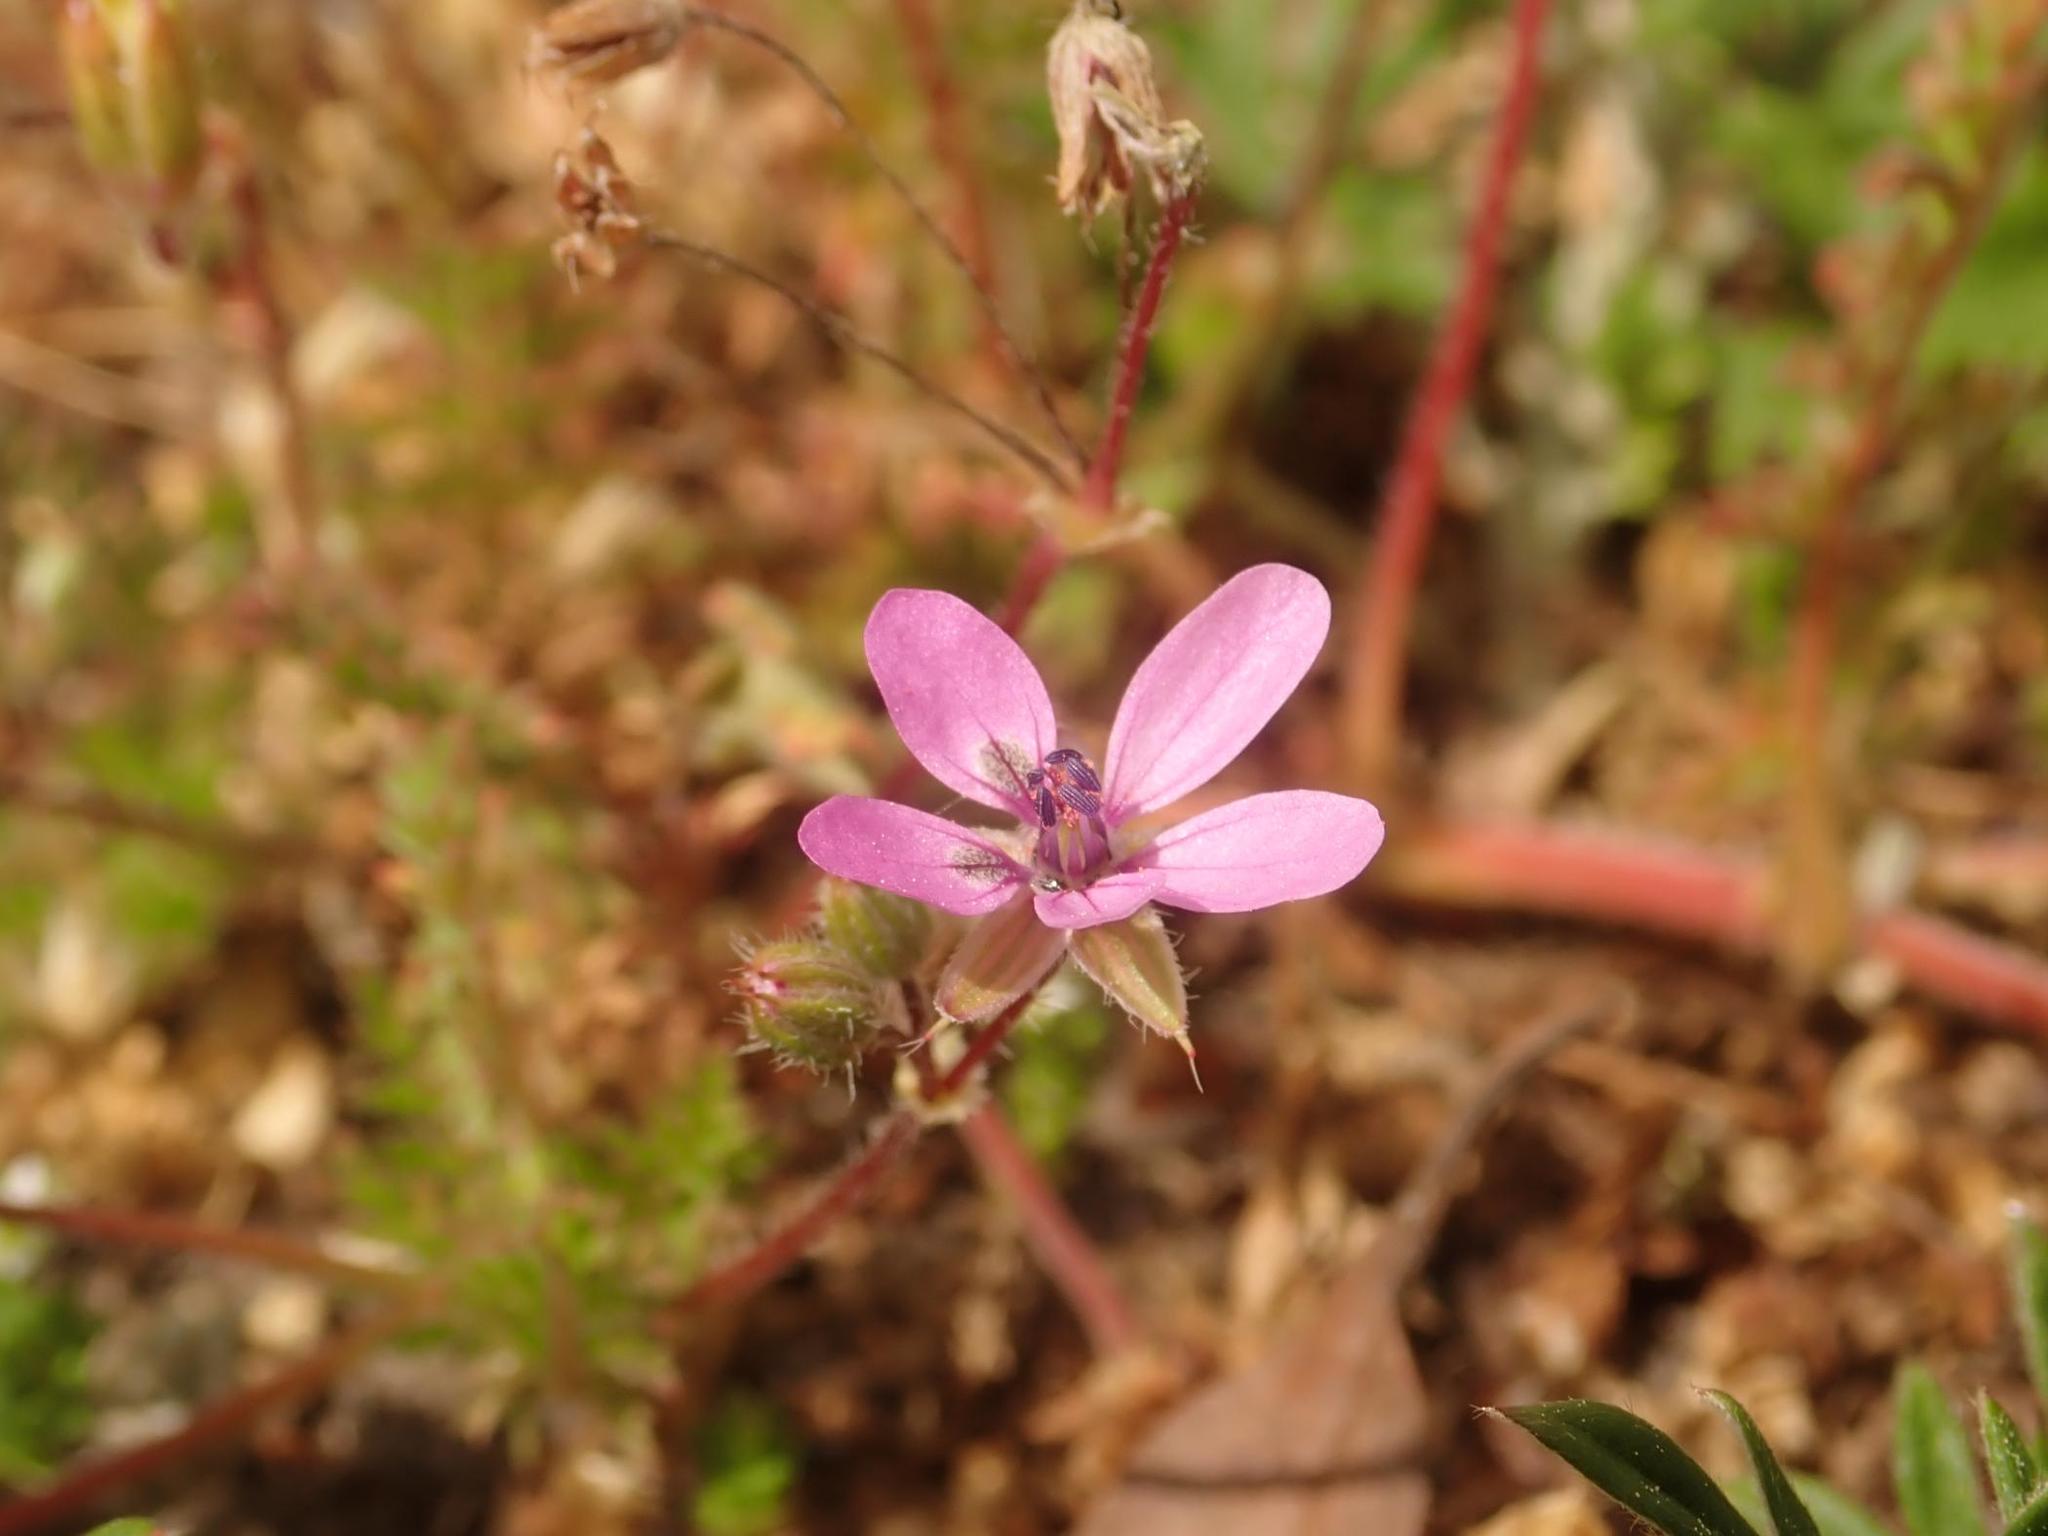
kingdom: Plantae
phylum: Tracheophyta
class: Magnoliopsida
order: Geraniales
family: Geraniaceae
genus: Erodium
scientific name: Erodium cicutarium
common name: Common stork's-bill
